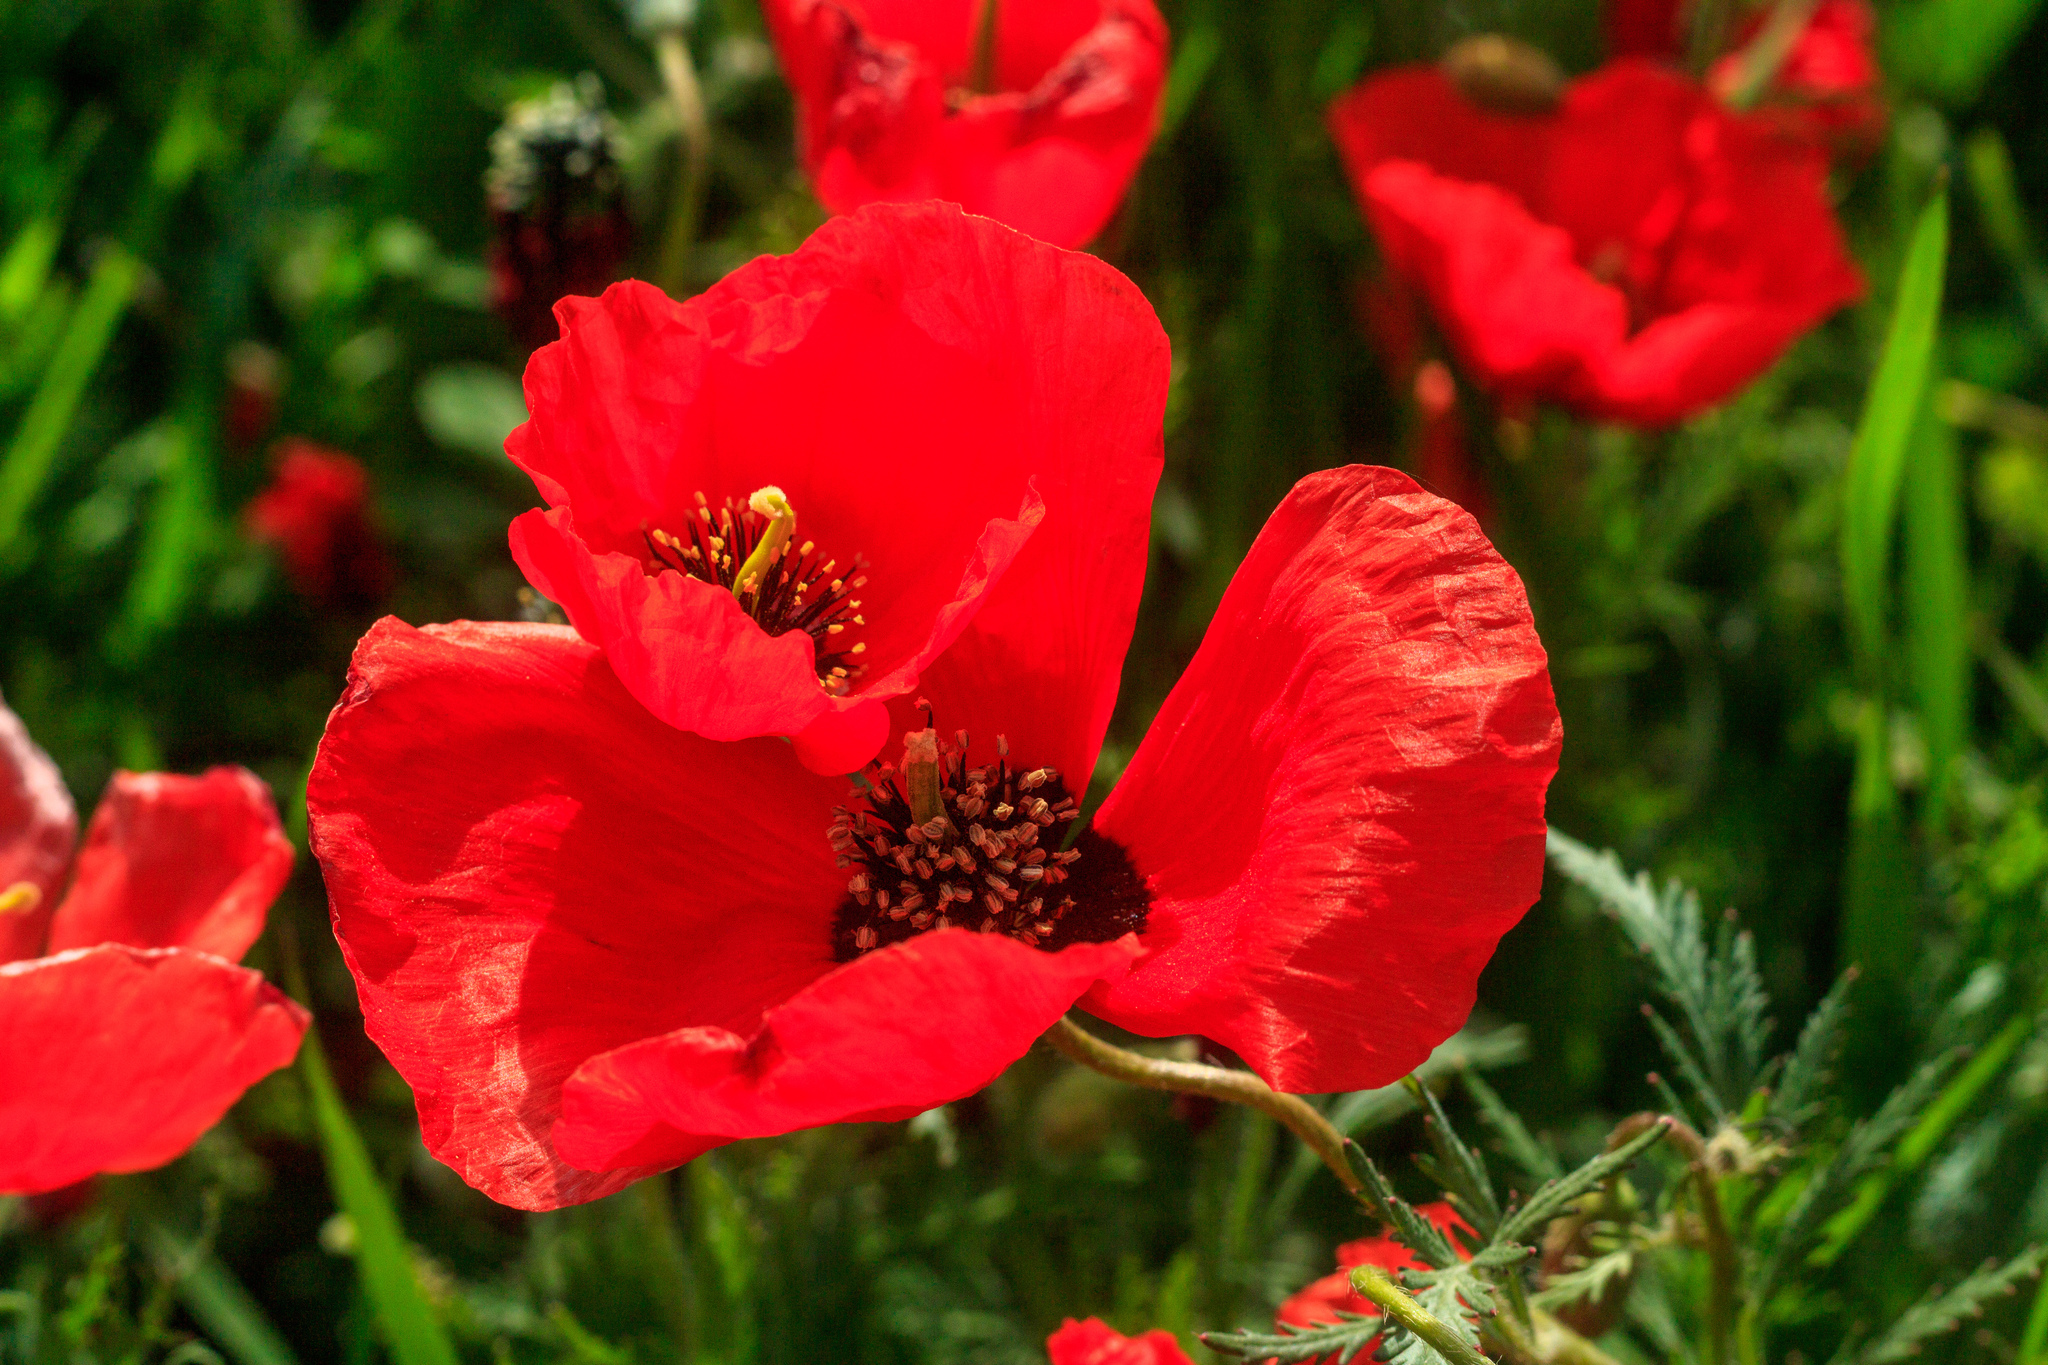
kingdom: Plantae
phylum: Tracheophyta
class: Magnoliopsida
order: Ranunculales
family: Papaveraceae
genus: Roemeria
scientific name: Roemeria refracta
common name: Spotted asian poppy
